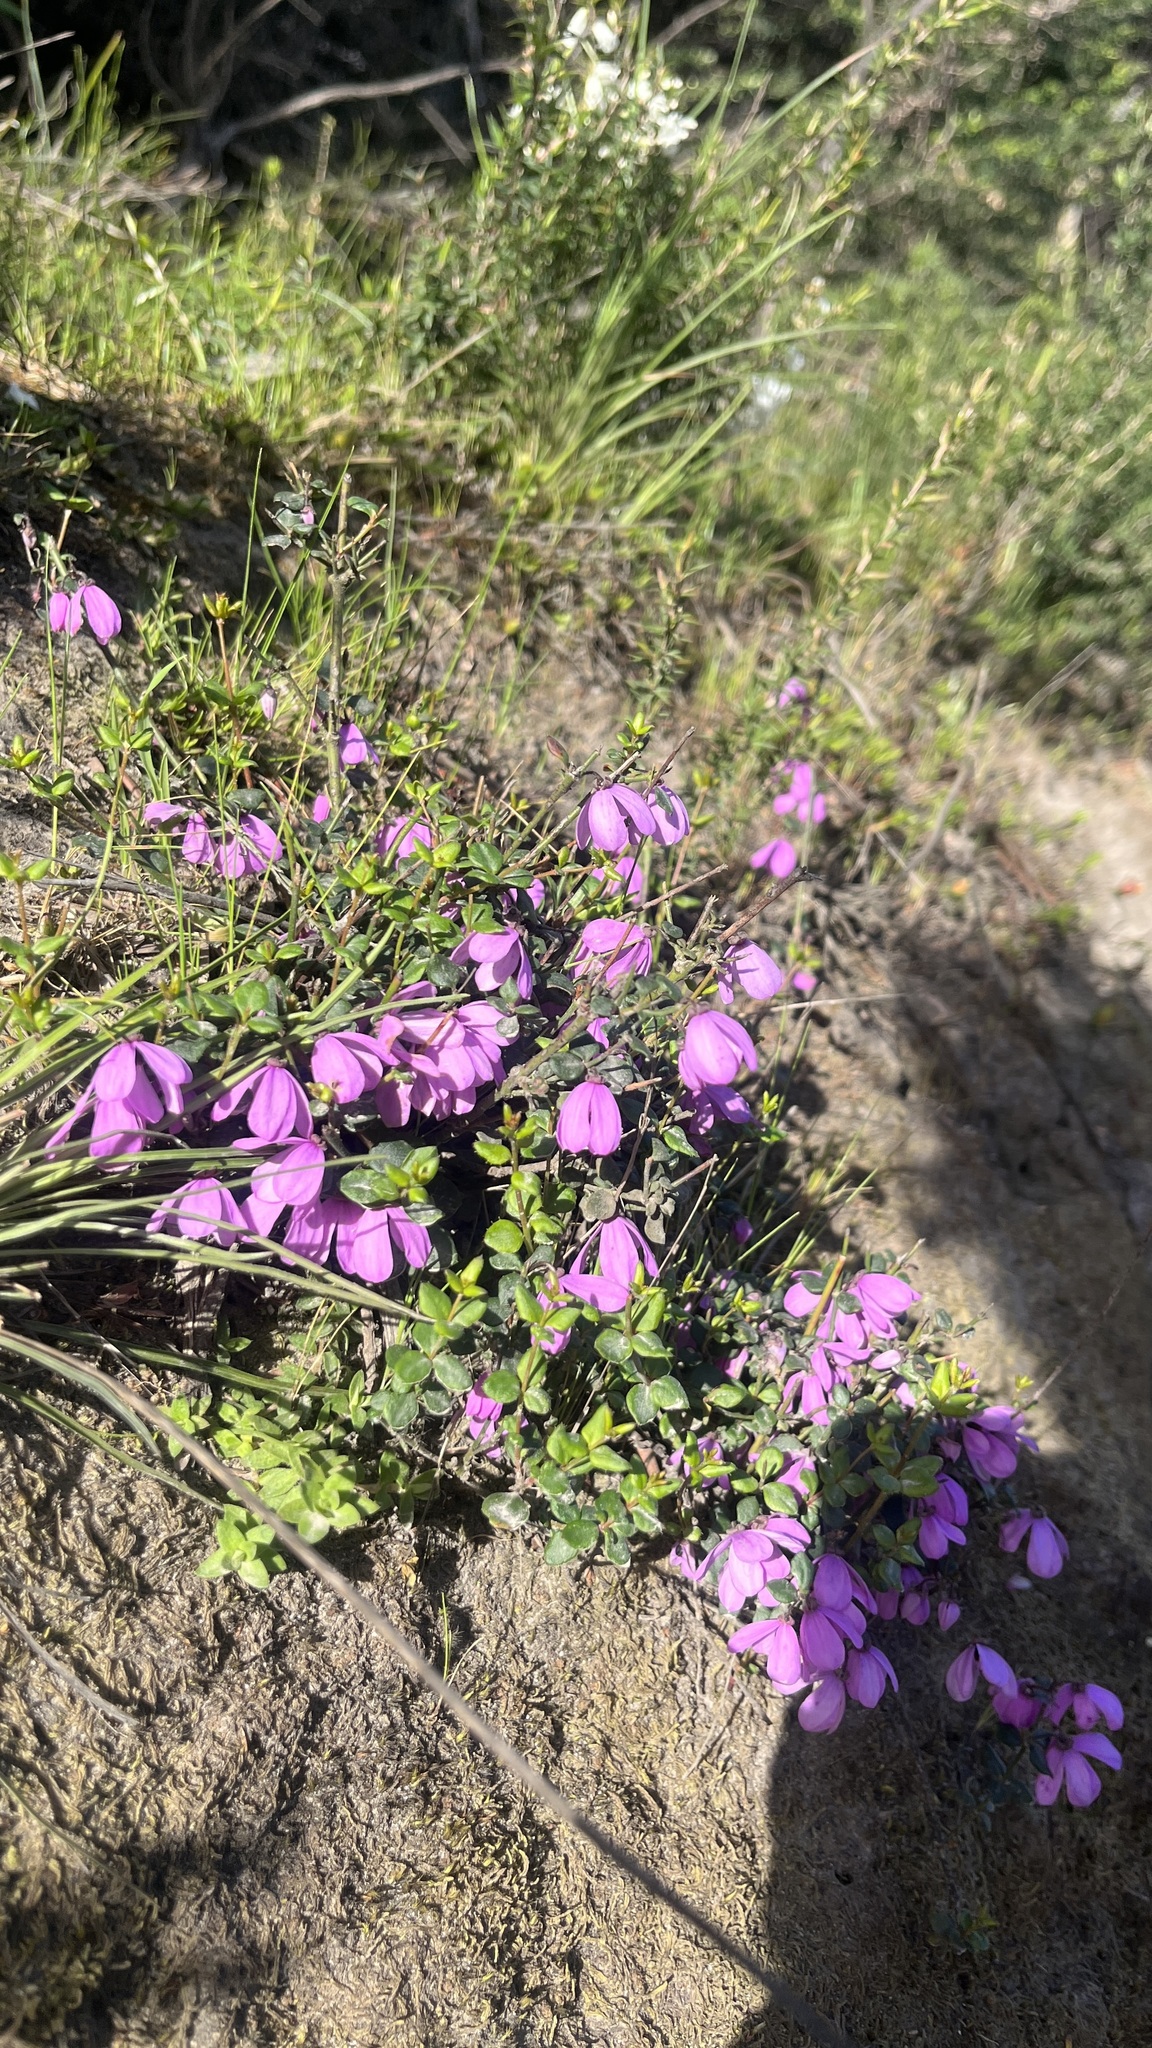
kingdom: Plantae
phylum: Tracheophyta
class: Magnoliopsida
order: Oxalidales
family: Elaeocarpaceae
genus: Tetratheca
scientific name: Tetratheca ciliata
